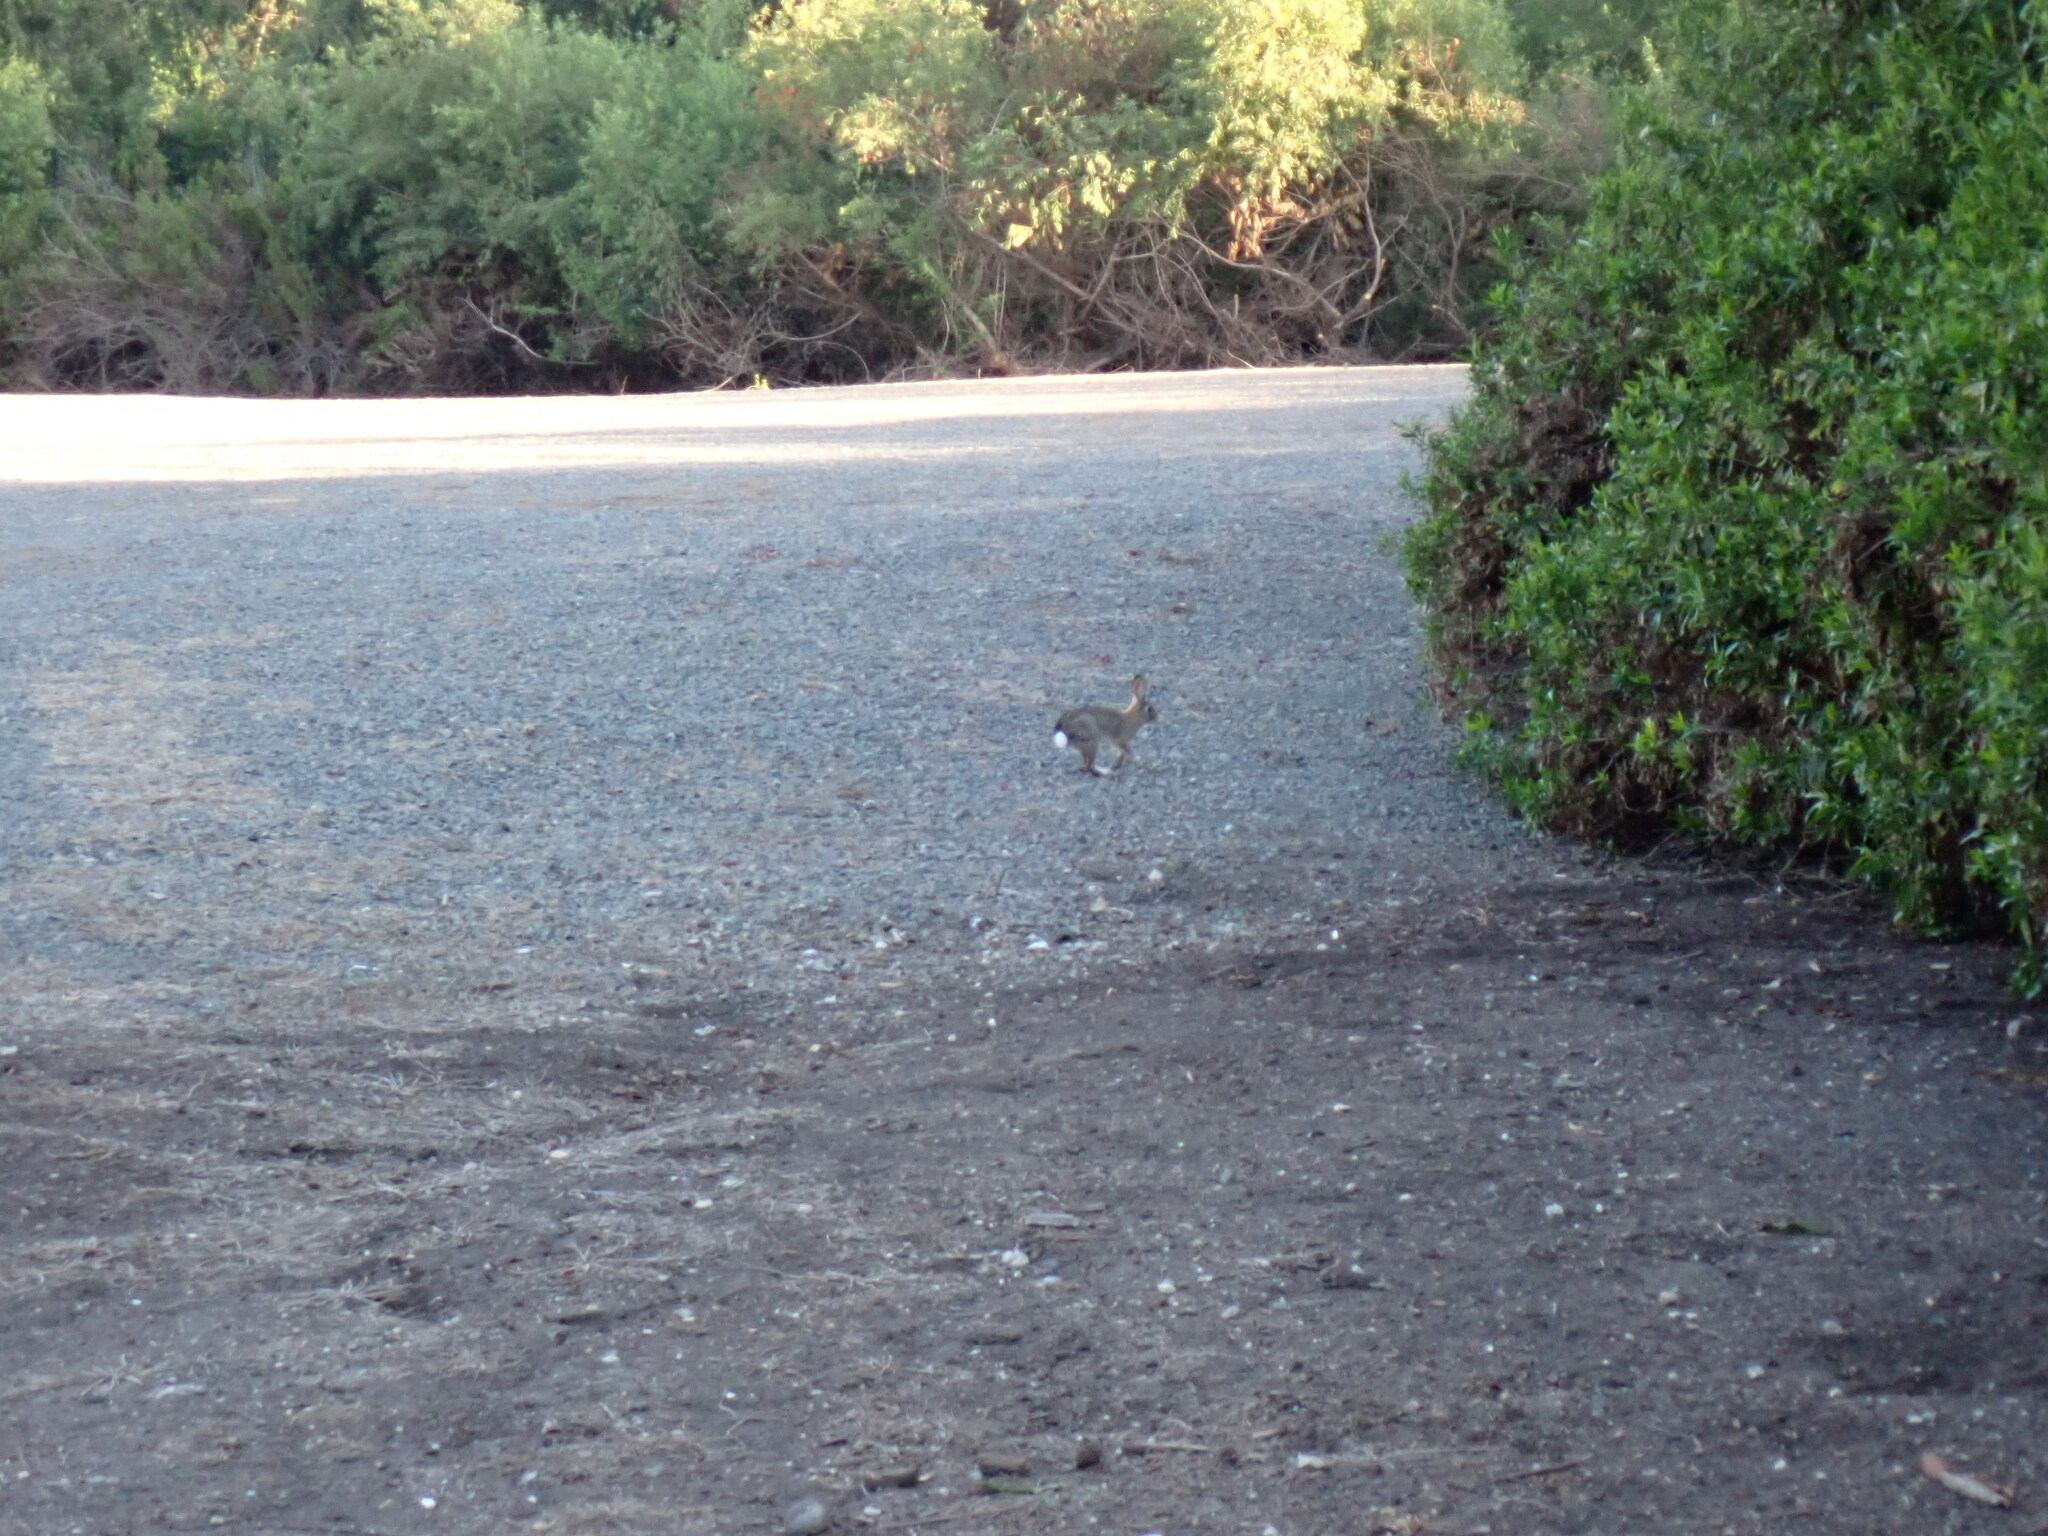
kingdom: Animalia
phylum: Chordata
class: Mammalia
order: Lagomorpha
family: Leporidae
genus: Sylvilagus
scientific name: Sylvilagus audubonii
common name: Desert cottontail
